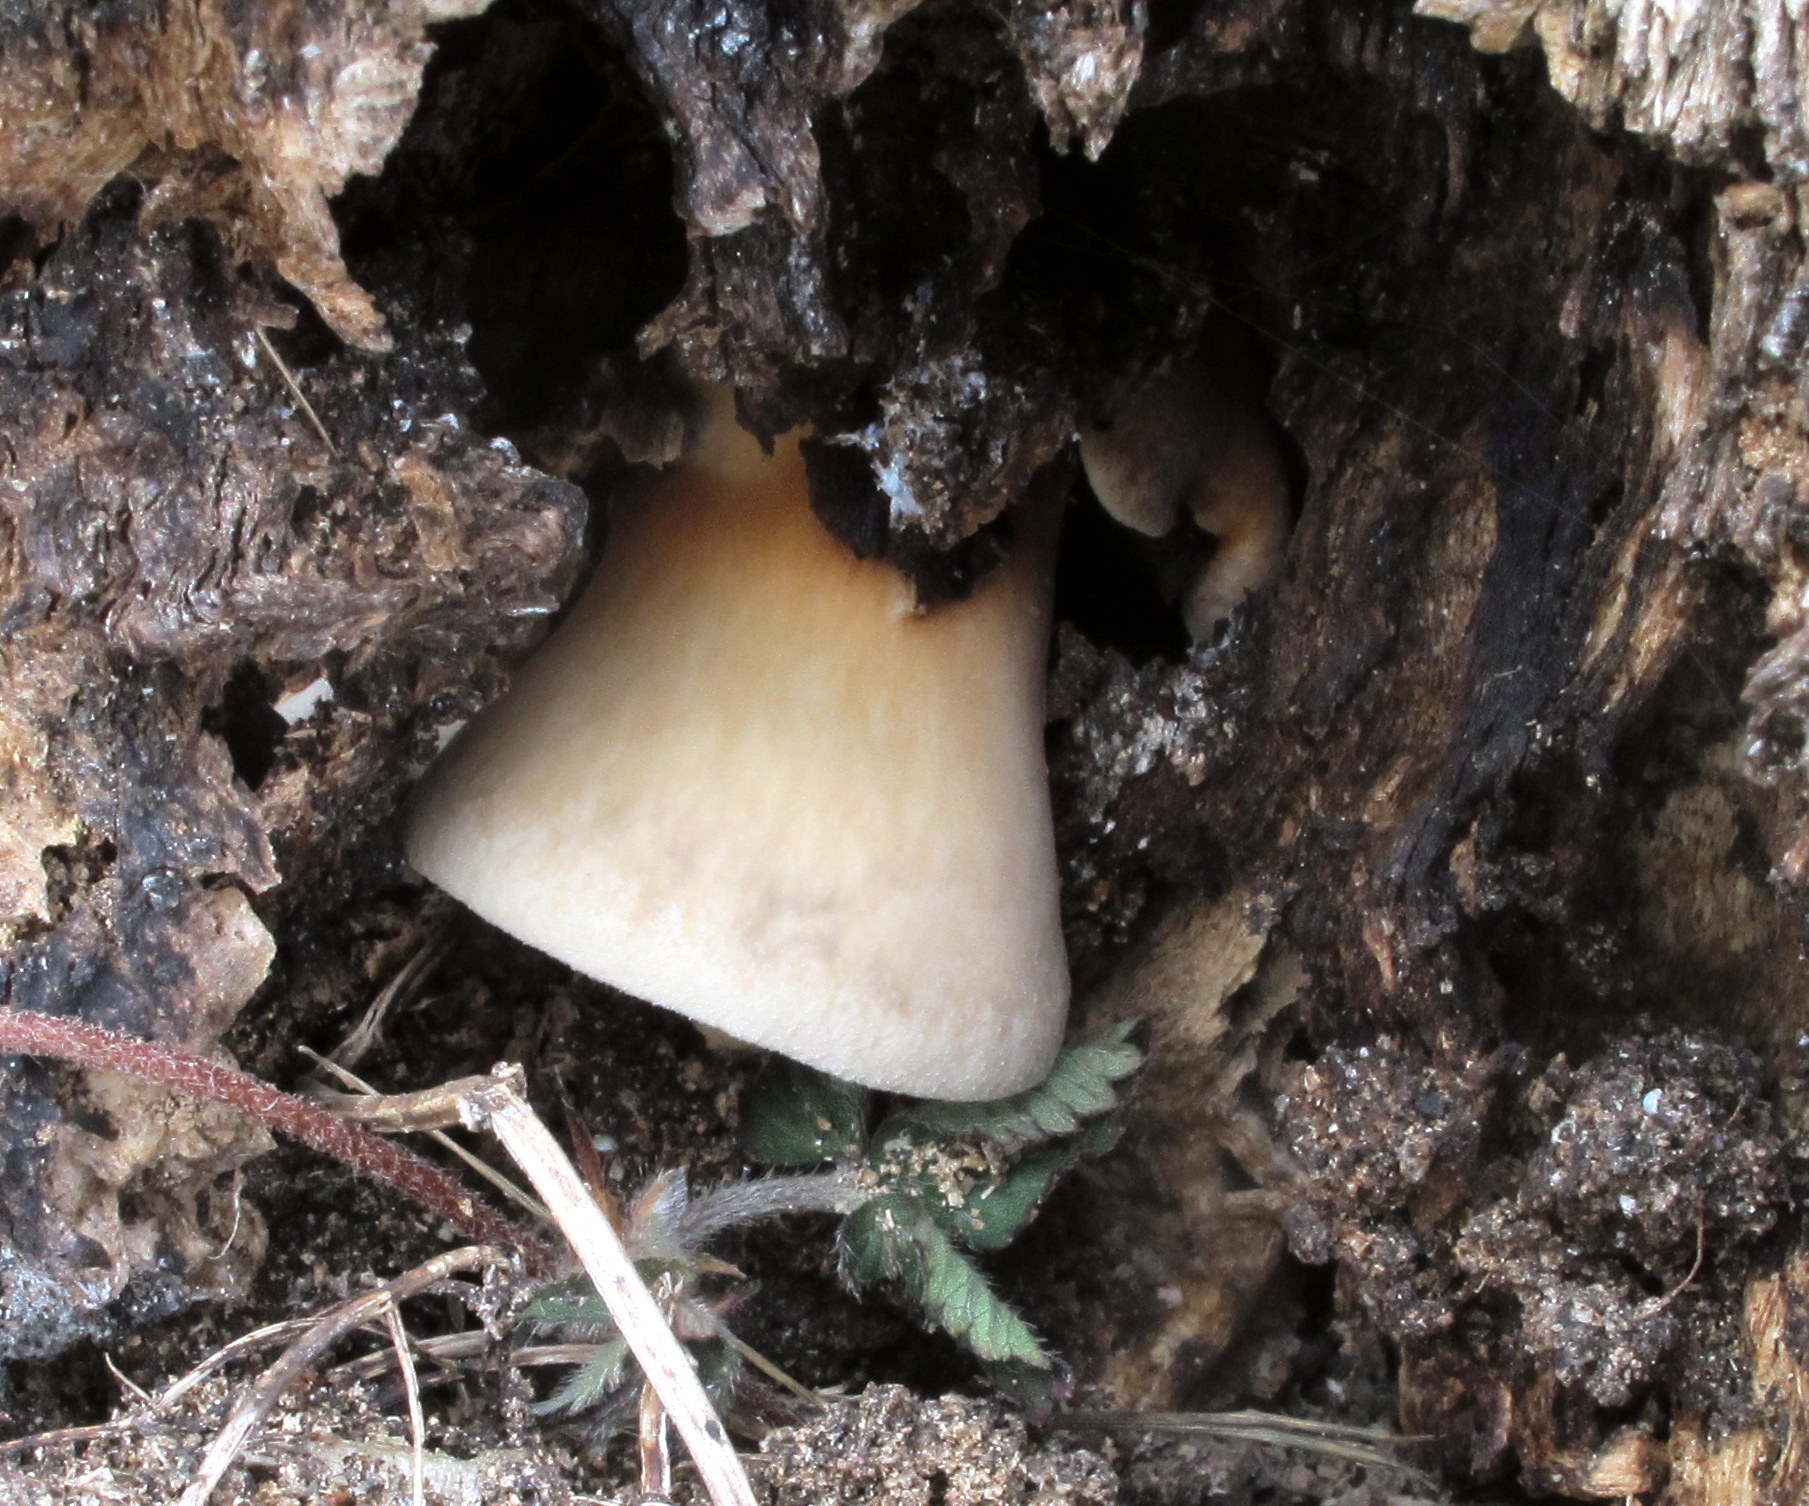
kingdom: Fungi
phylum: Basidiomycota
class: Agaricomycetes
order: Agaricales
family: Pleurotaceae
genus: Pleurotus
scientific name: Pleurotus ostreatus
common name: Oyster mushroom
